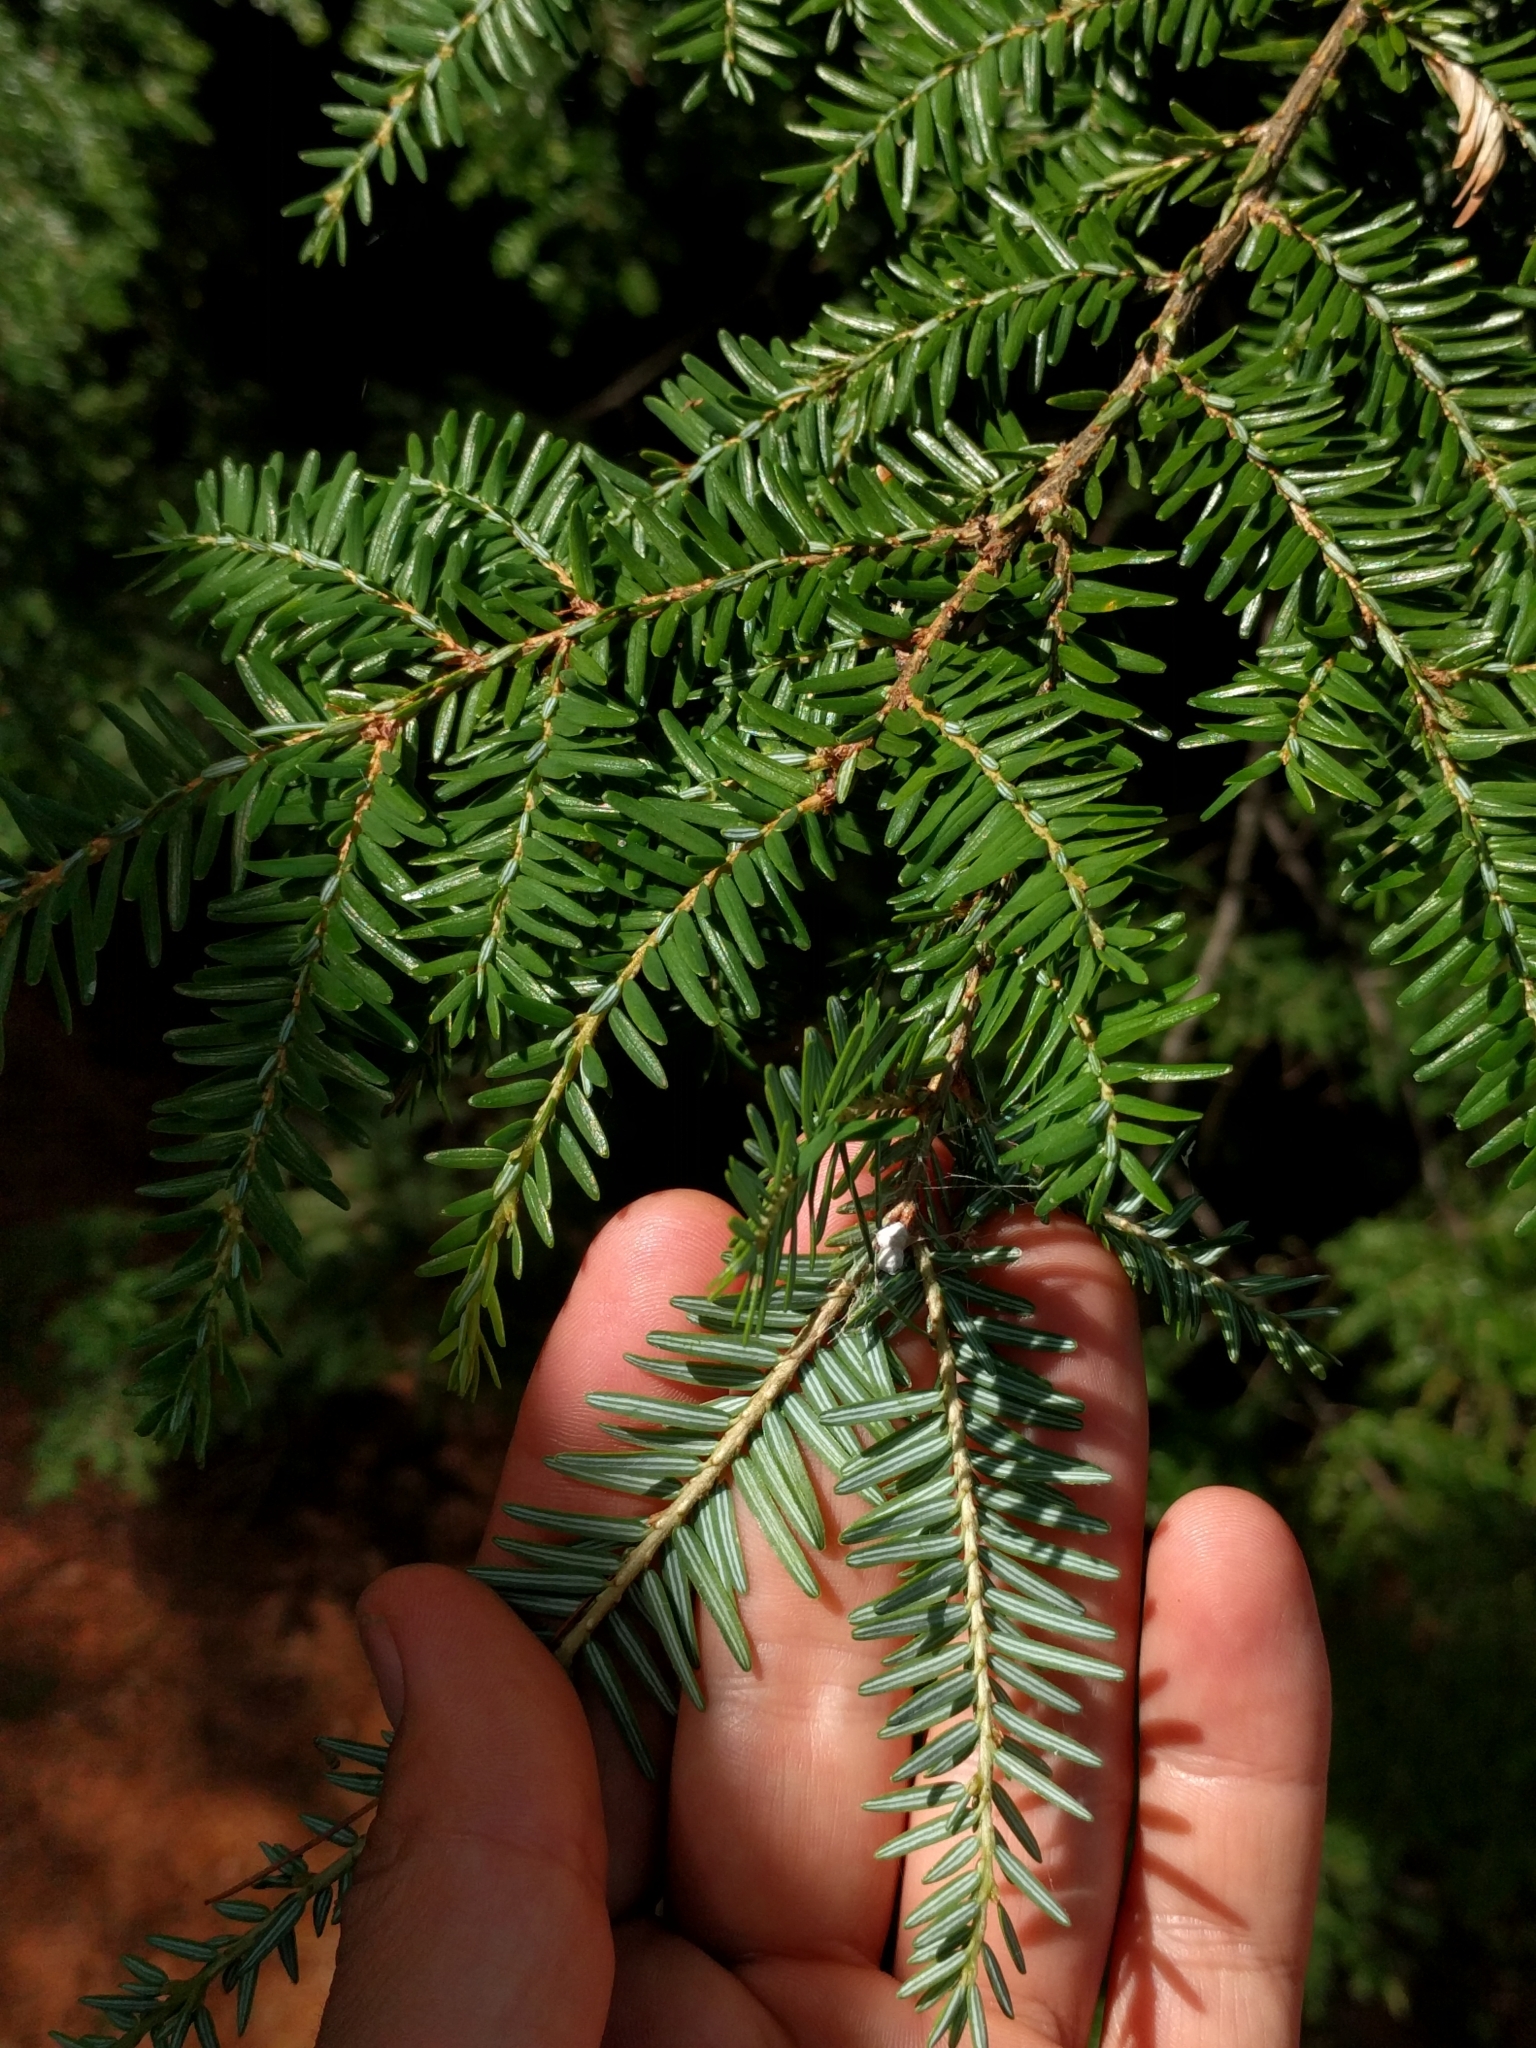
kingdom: Plantae
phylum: Tracheophyta
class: Pinopsida
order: Pinales
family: Pinaceae
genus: Tsuga
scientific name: Tsuga canadensis
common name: Eastern hemlock
